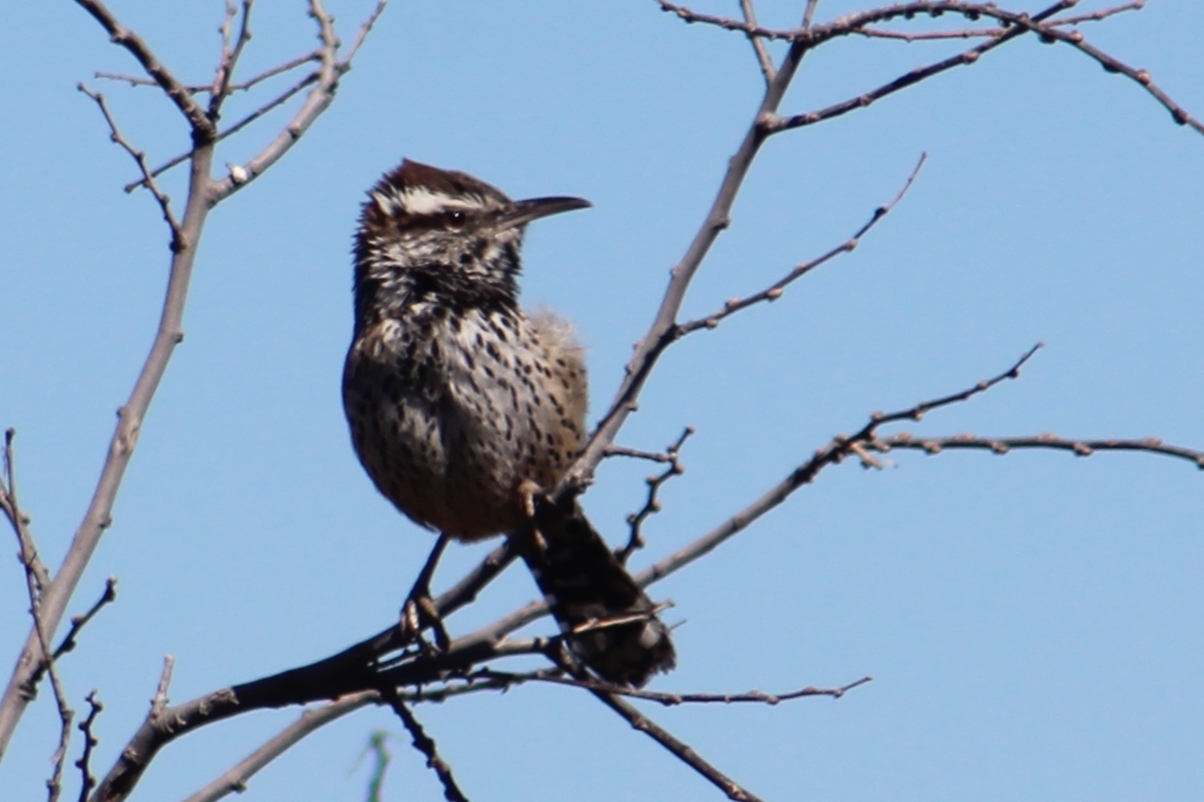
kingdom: Animalia
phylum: Chordata
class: Aves
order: Passeriformes
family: Troglodytidae
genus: Campylorhynchus
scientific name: Campylorhynchus brunneicapillus
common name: Cactus wren
